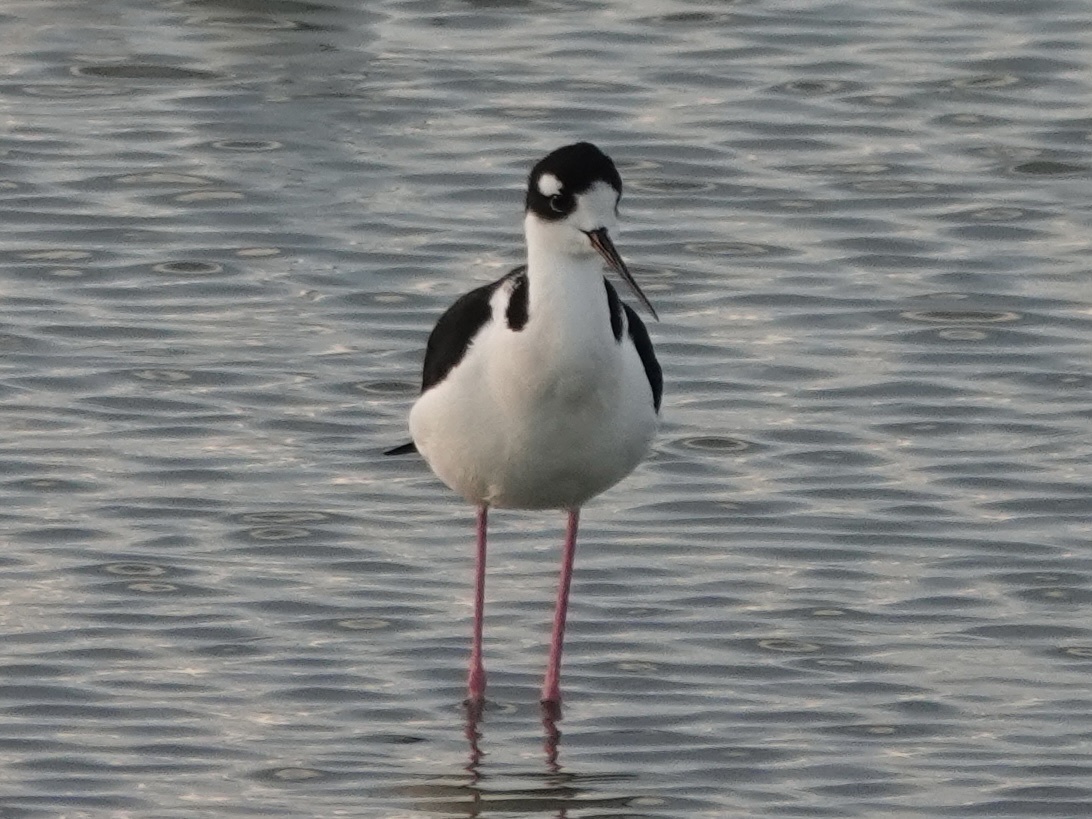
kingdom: Animalia
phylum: Chordata
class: Aves
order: Charadriiformes
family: Recurvirostridae
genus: Himantopus
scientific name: Himantopus mexicanus
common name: Black-necked stilt
